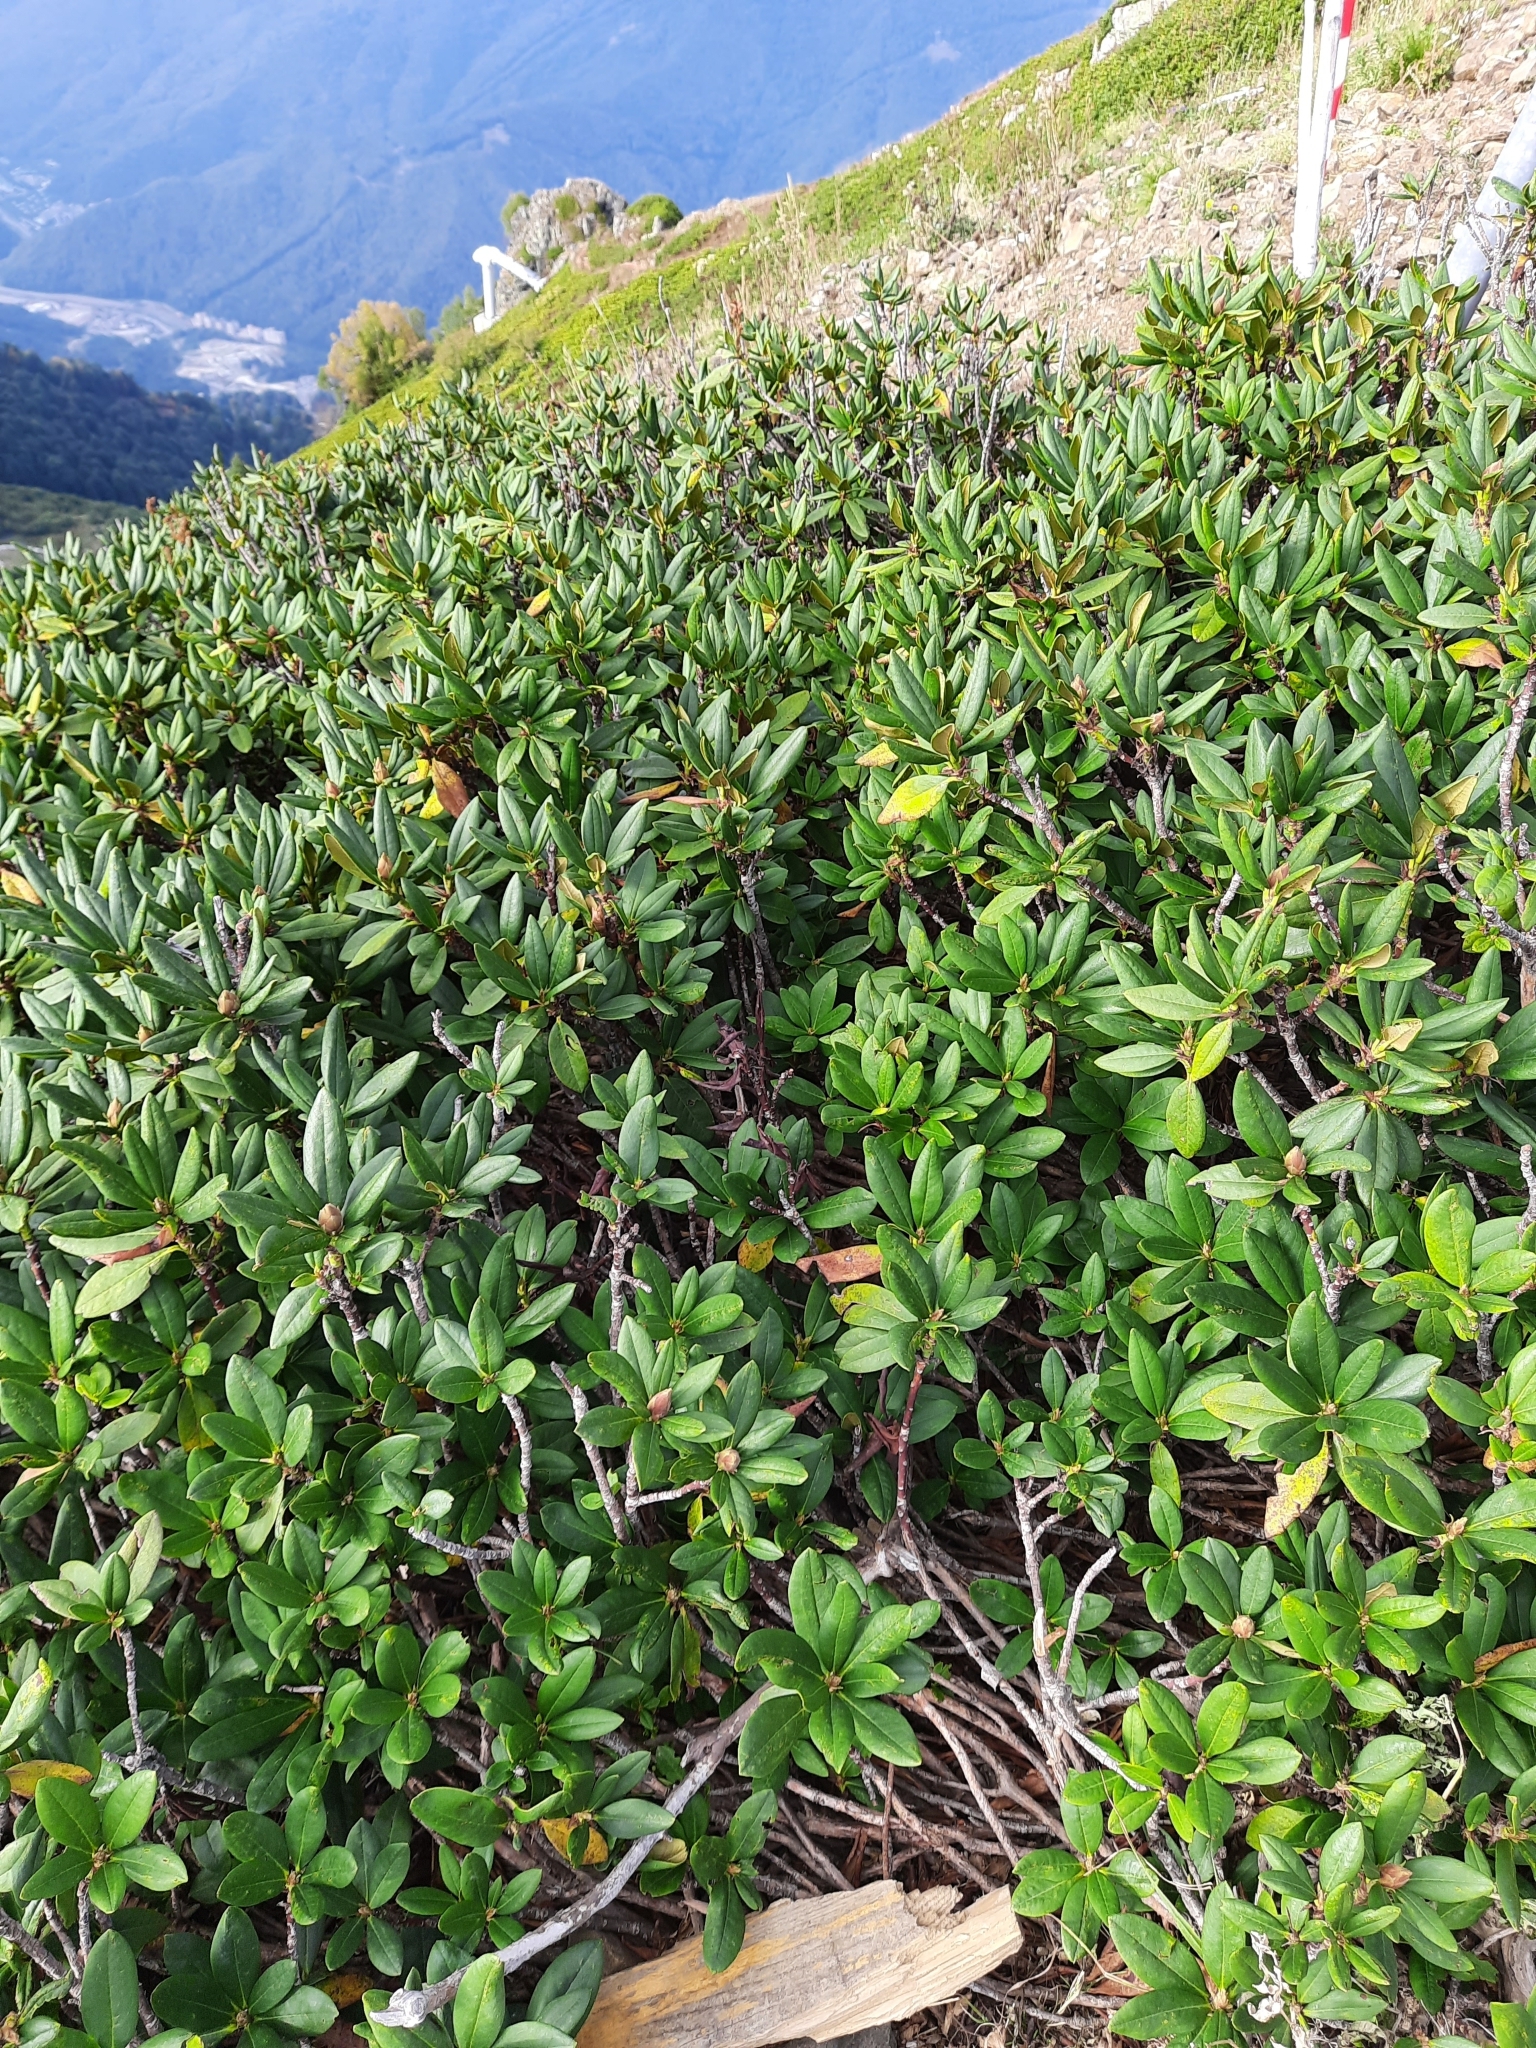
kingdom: Plantae
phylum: Tracheophyta
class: Magnoliopsida
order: Ericales
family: Ericaceae
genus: Rhododendron
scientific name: Rhododendron caucasicum
